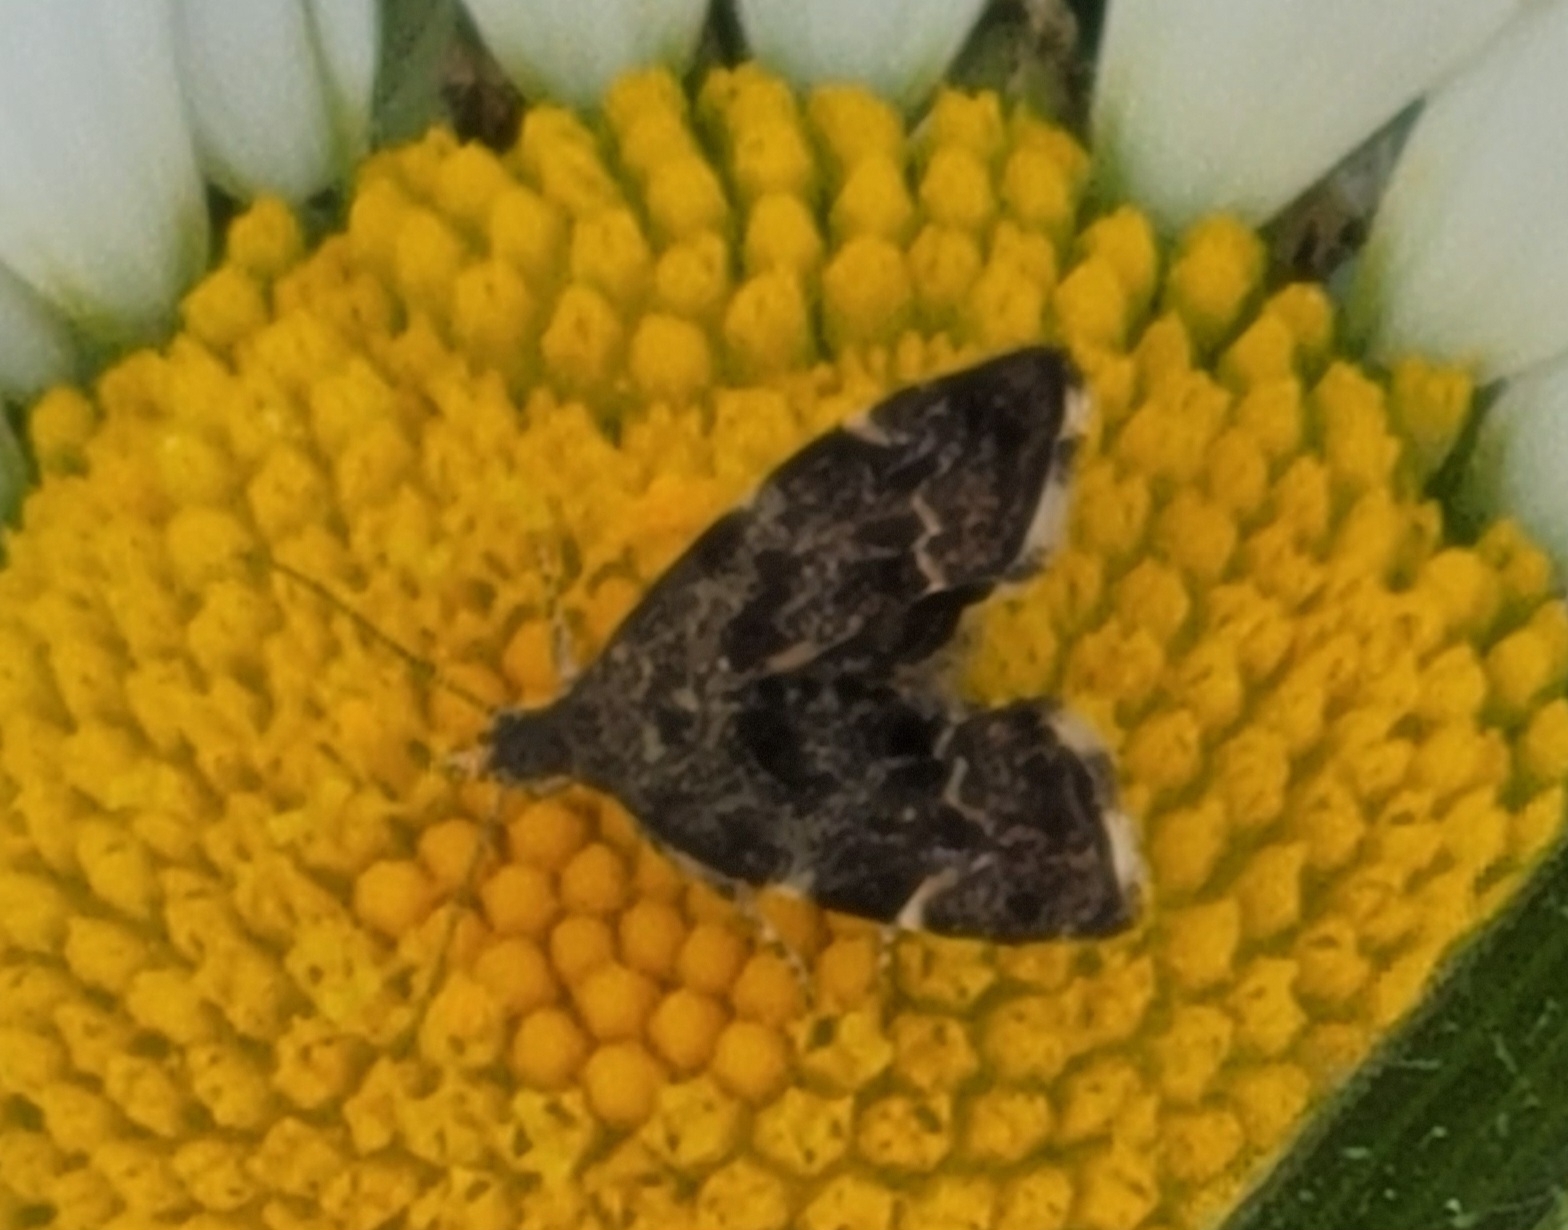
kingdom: Animalia
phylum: Arthropoda
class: Insecta
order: Lepidoptera
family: Choreutidae
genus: Anthophila
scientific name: Anthophila fabriciana
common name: Nettle-tap
